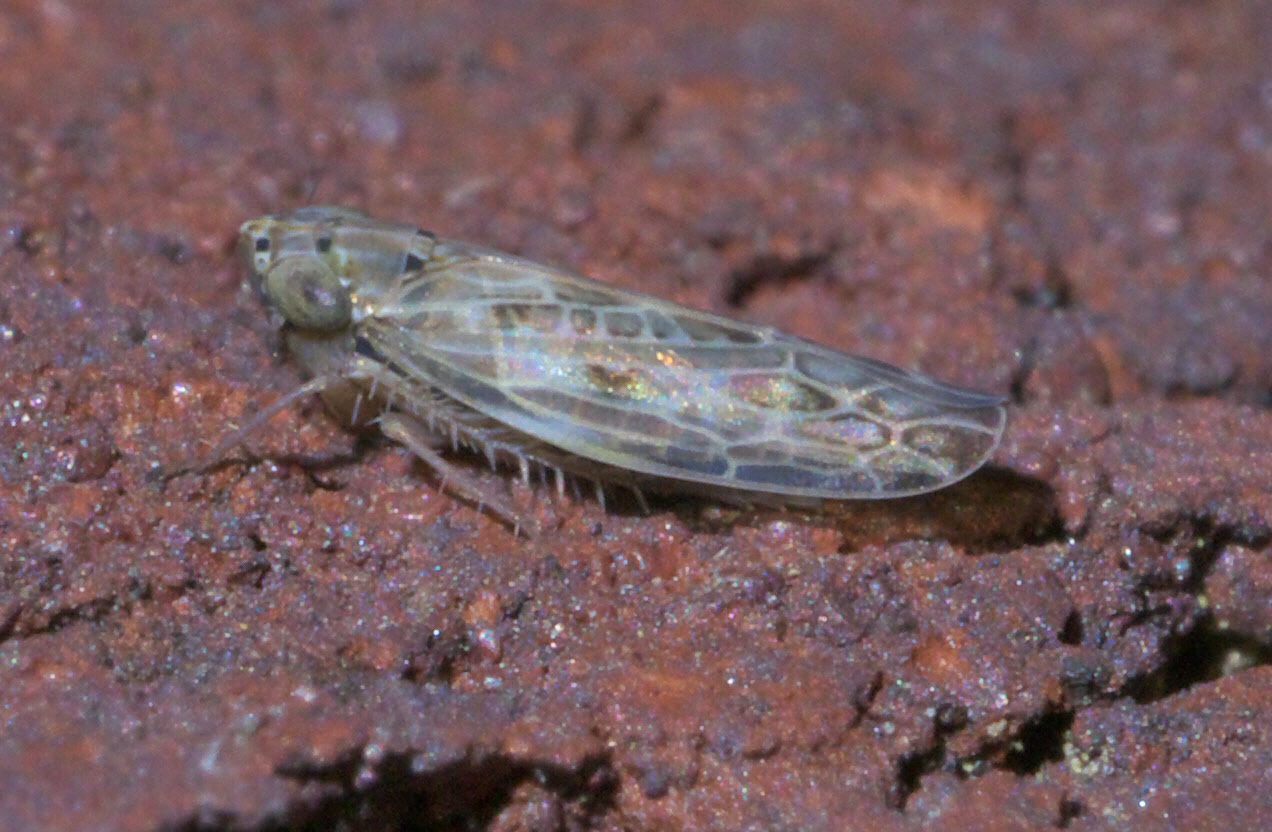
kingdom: Animalia
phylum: Arthropoda
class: Insecta
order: Hemiptera
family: Cicadellidae
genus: Endria
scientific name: Endria inimicus
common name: Painted leafhopper
